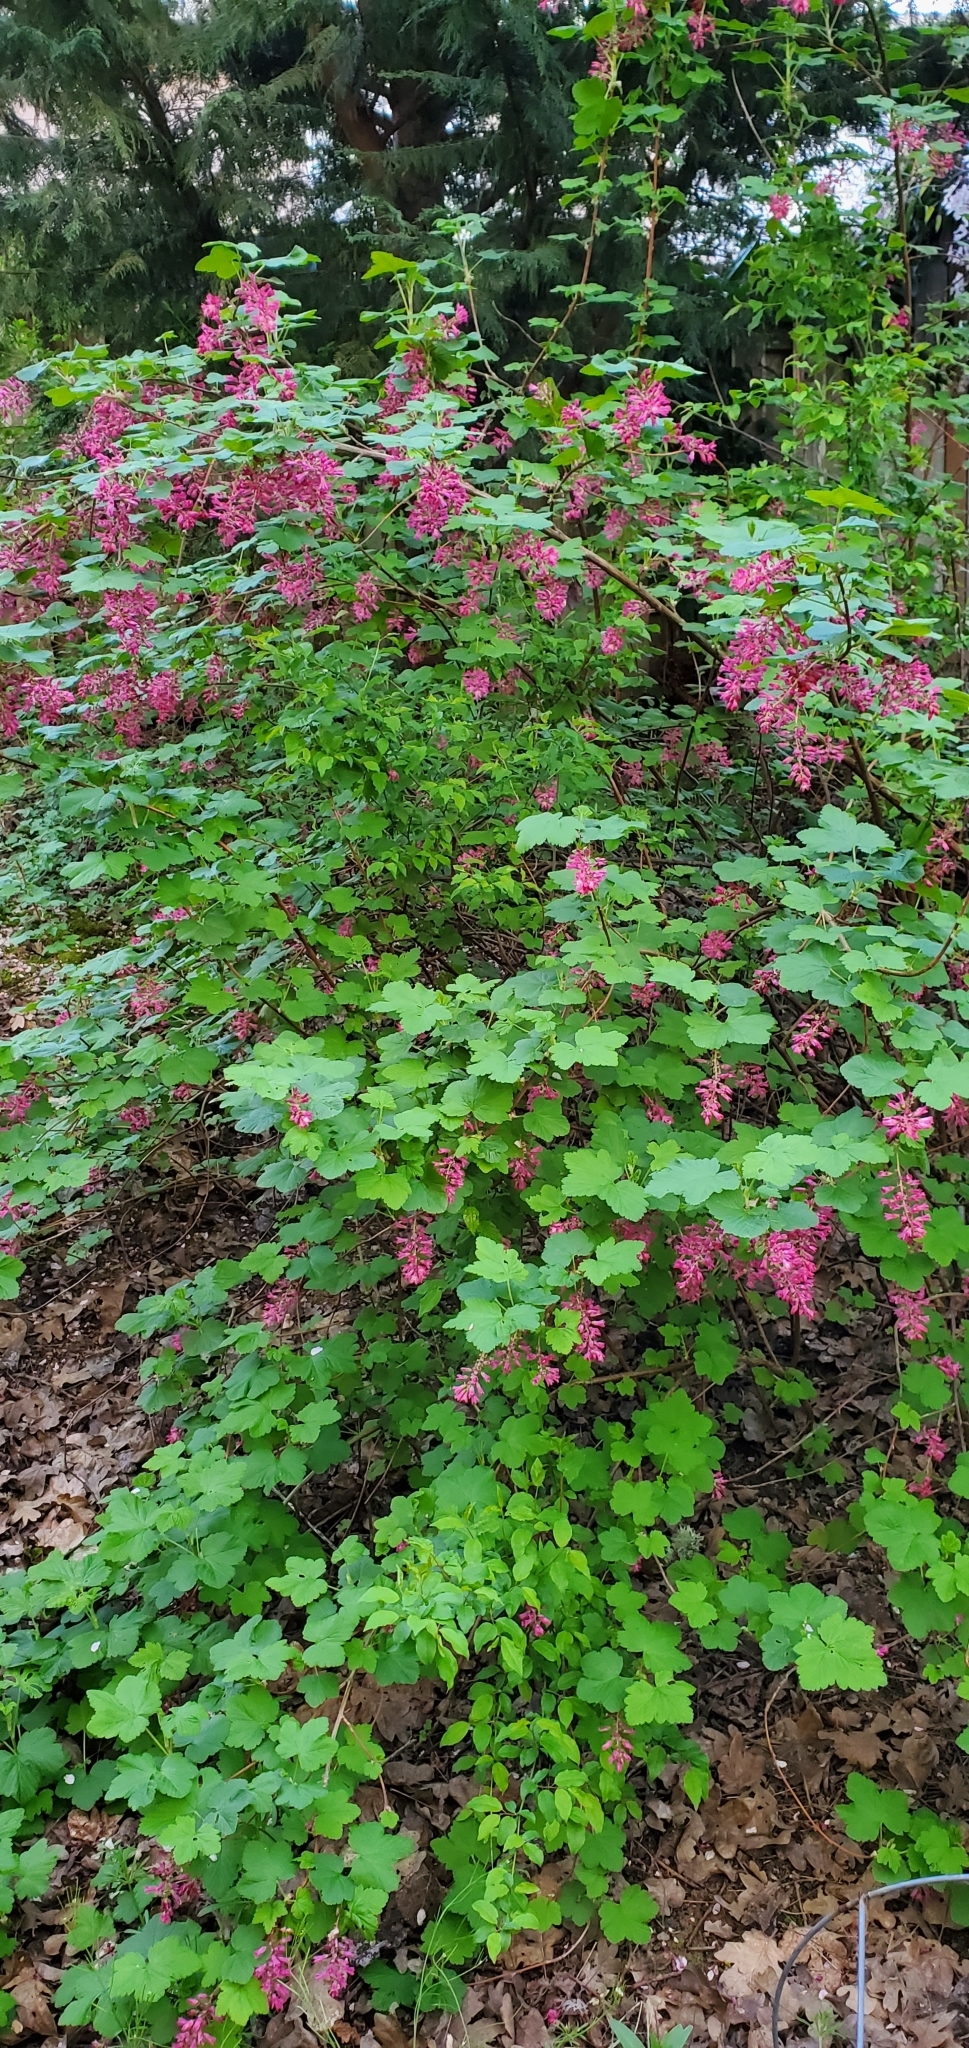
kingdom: Plantae
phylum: Tracheophyta
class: Magnoliopsida
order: Saxifragales
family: Grossulariaceae
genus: Ribes
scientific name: Ribes sanguineum
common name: Flowering currant
